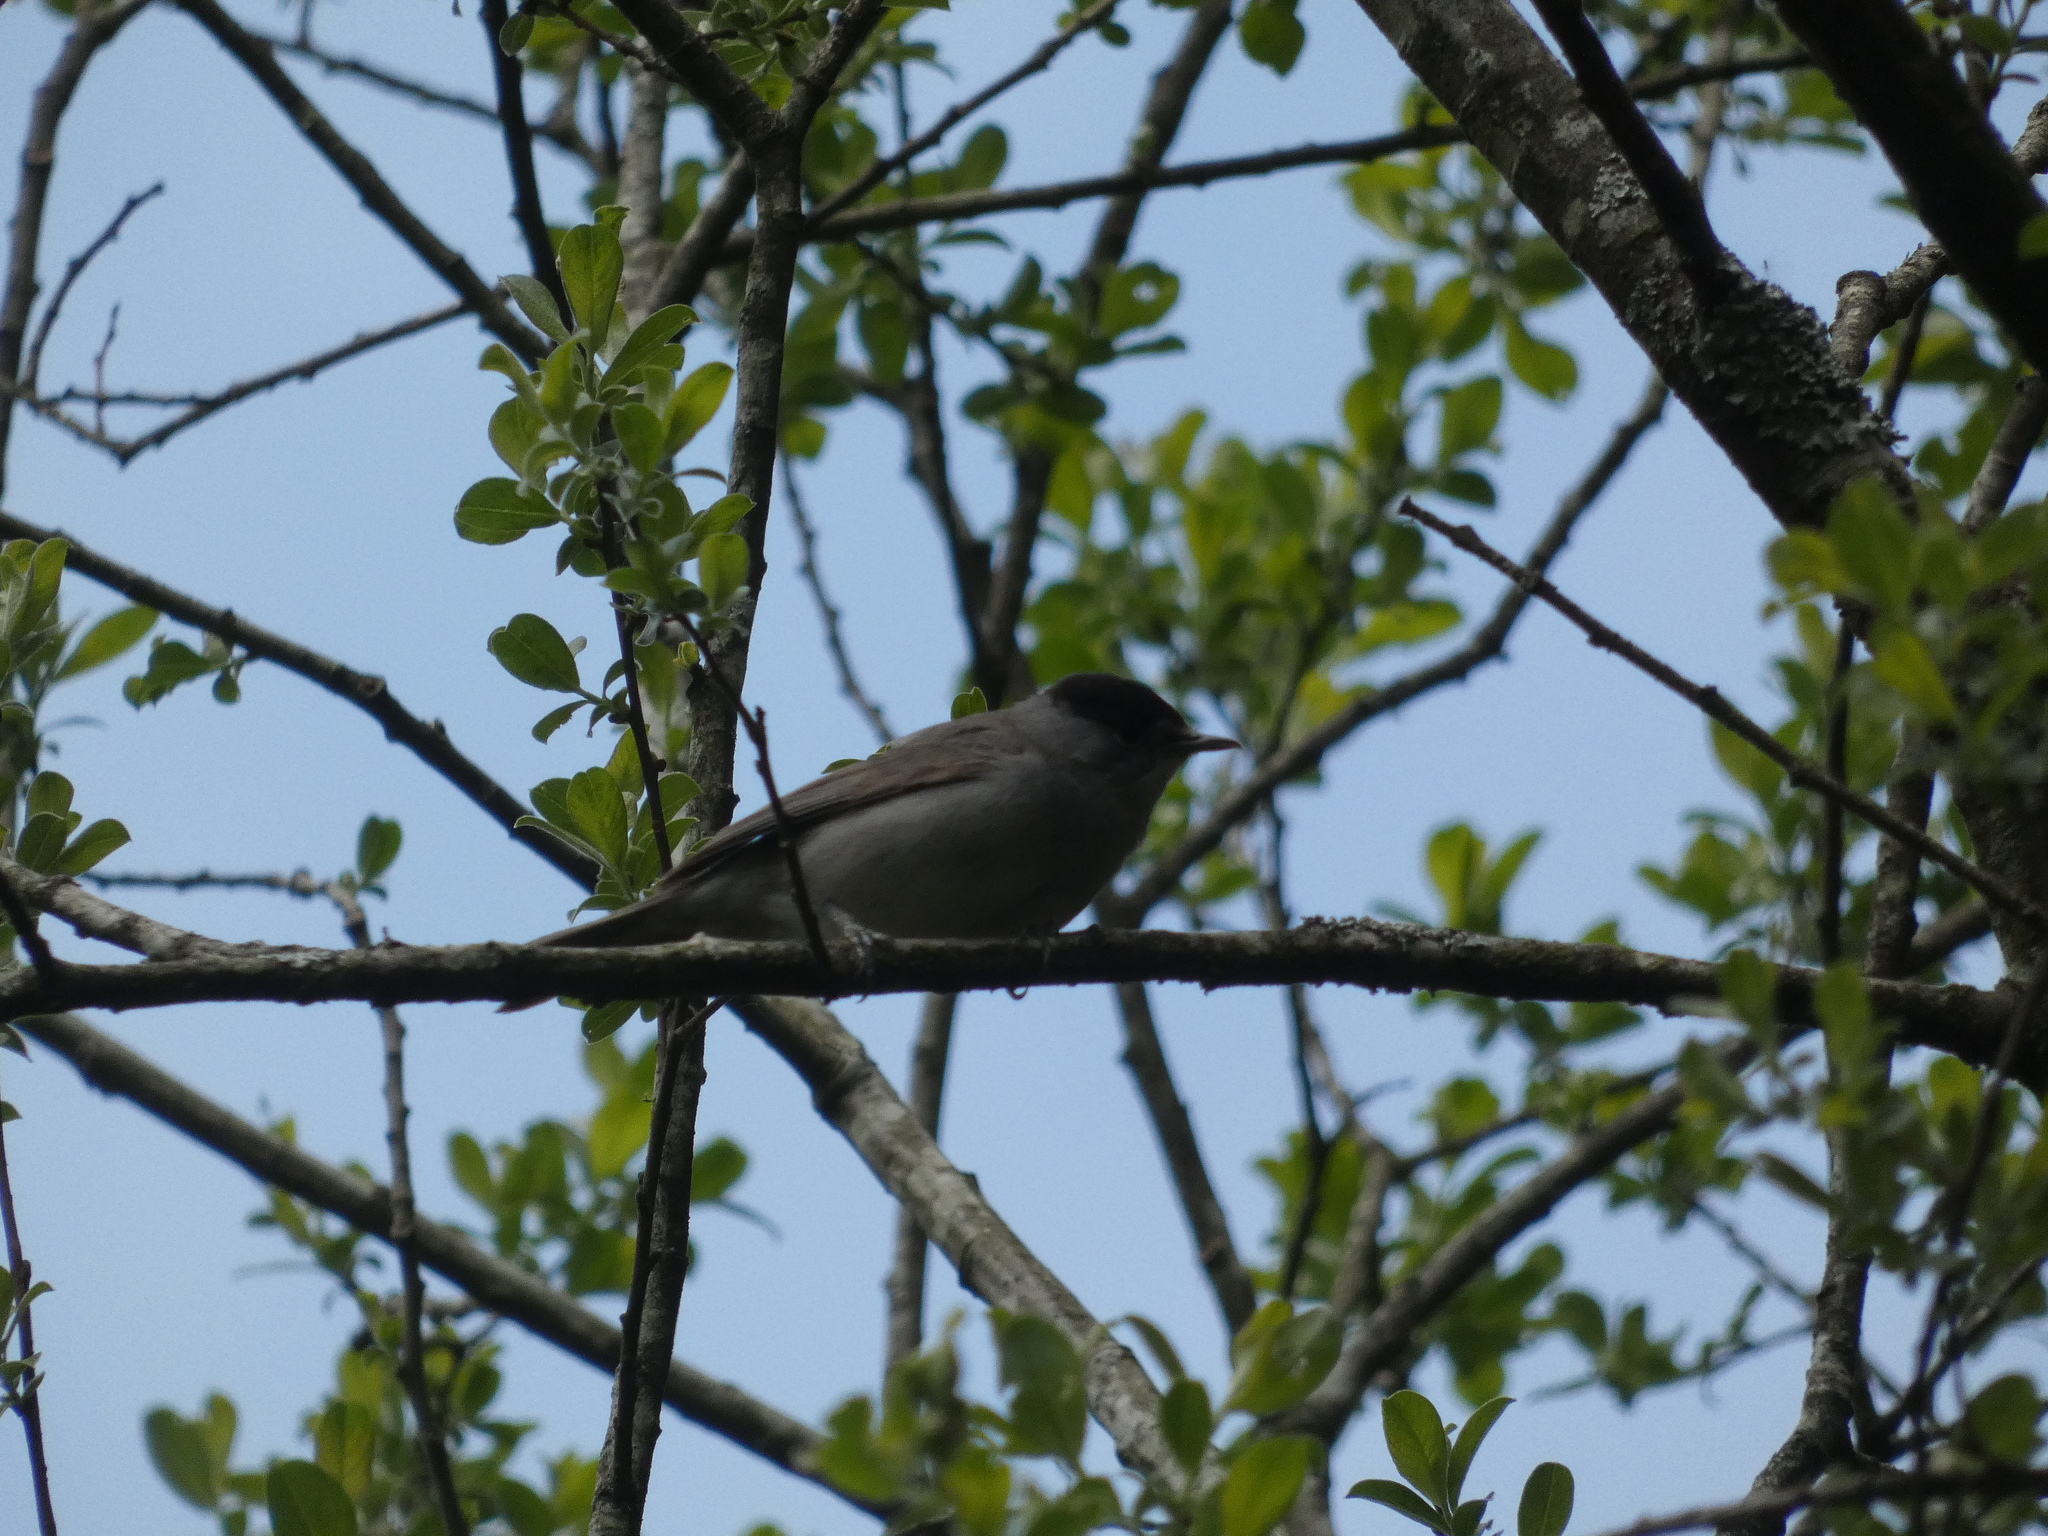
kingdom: Animalia
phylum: Chordata
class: Aves
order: Passeriformes
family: Sylviidae
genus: Sylvia
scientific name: Sylvia atricapilla
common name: Eurasian blackcap
